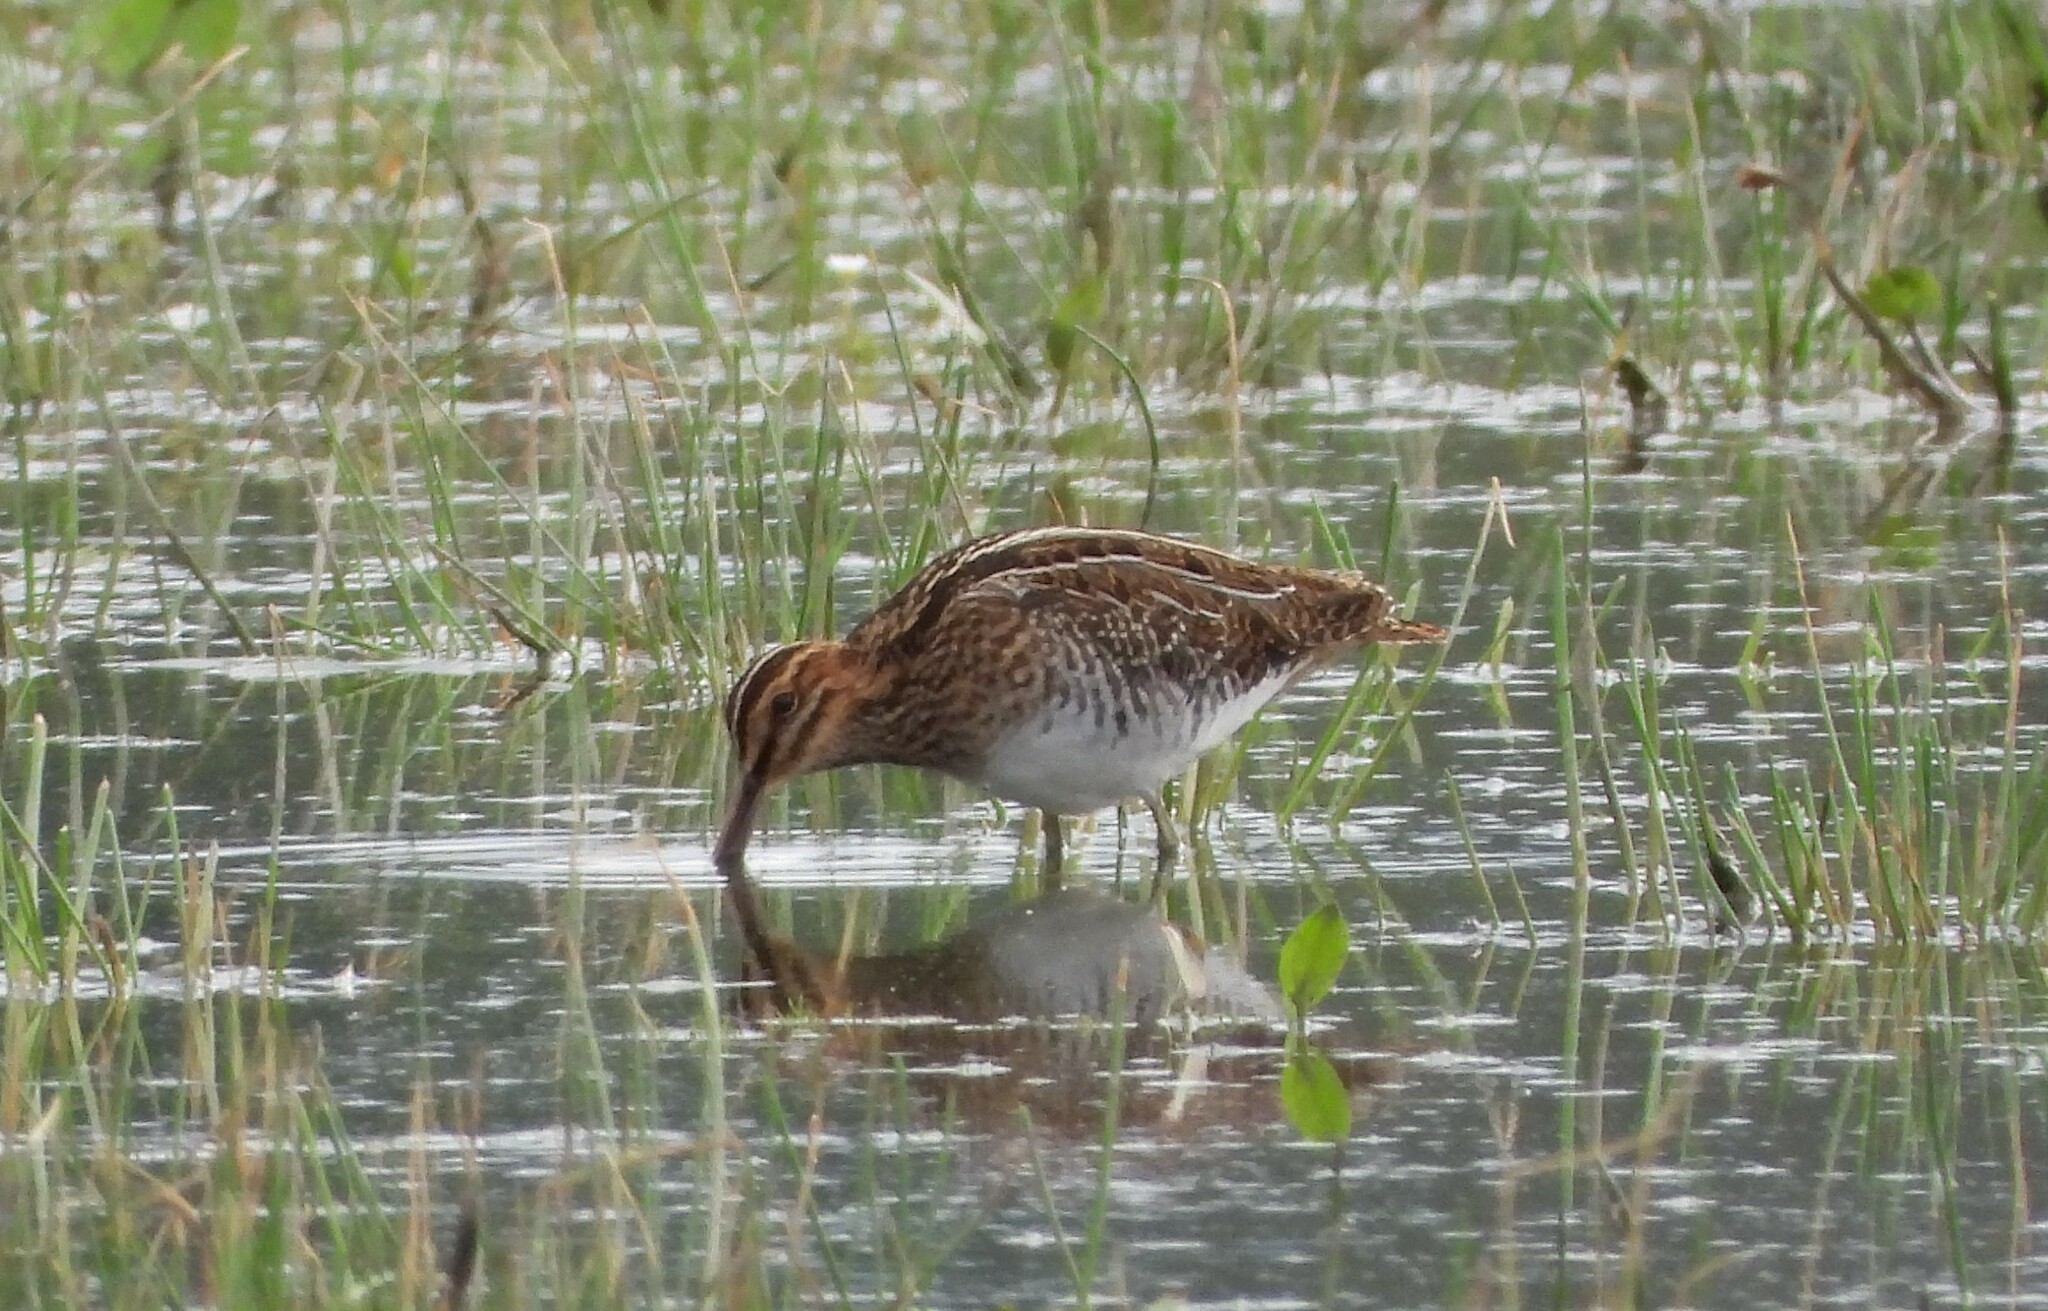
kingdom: Animalia
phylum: Chordata
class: Aves
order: Charadriiformes
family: Scolopacidae
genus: Gallinago
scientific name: Gallinago gallinago
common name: Common snipe
